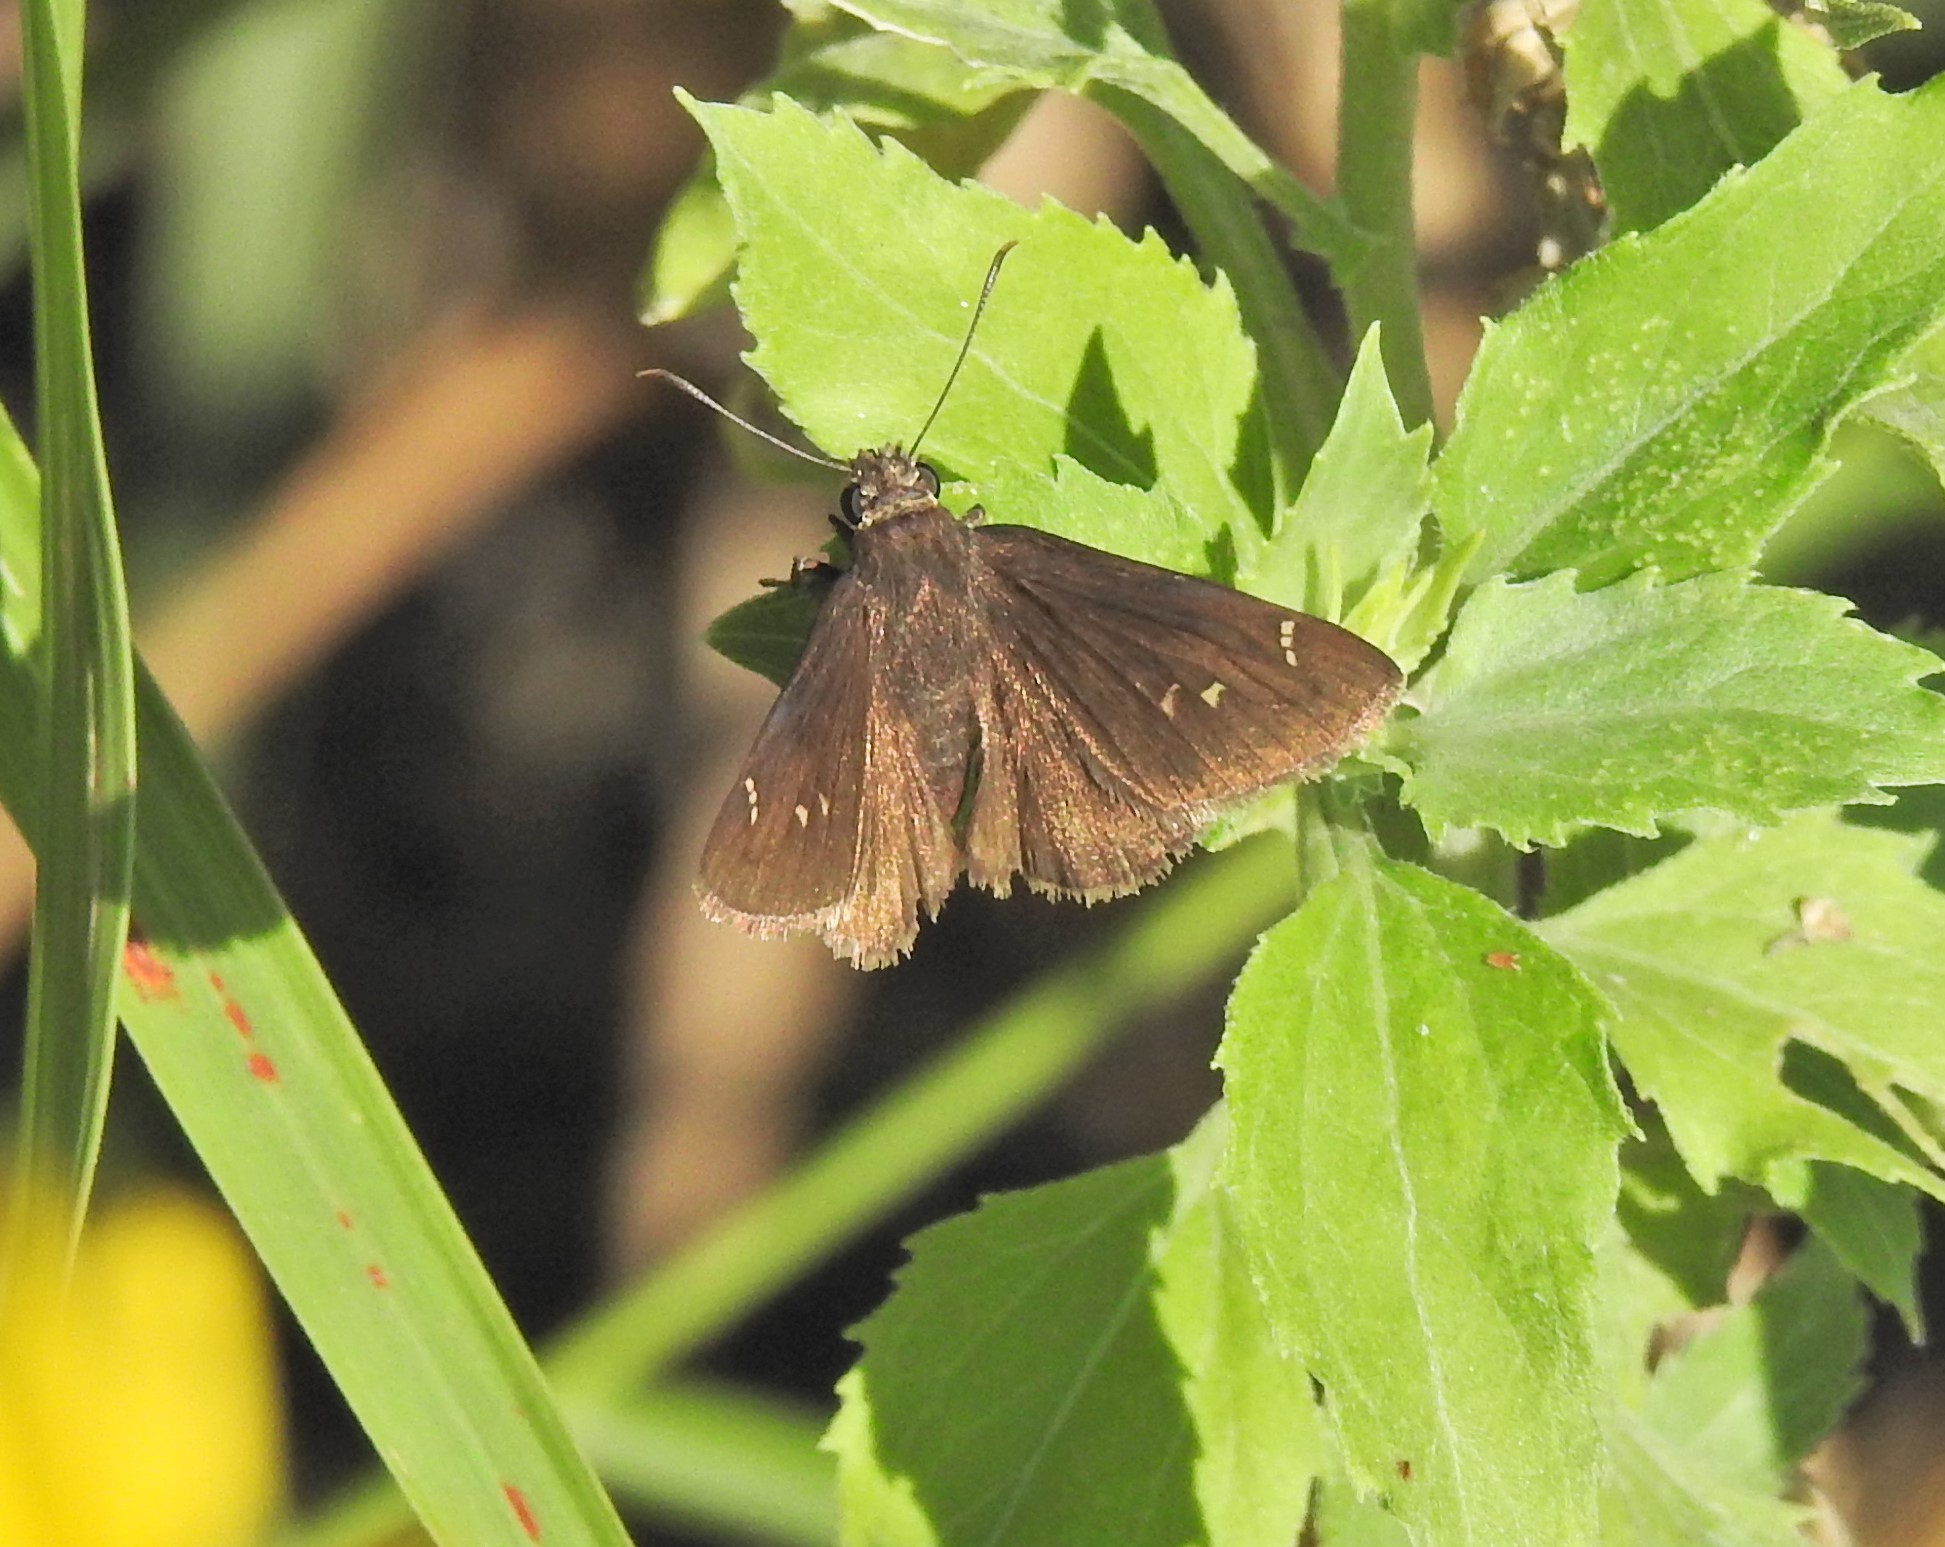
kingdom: Animalia
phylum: Arthropoda
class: Insecta
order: Lepidoptera
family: Hesperiidae
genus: Thorybes
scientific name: Thorybes pylades
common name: Northern cloudywing
